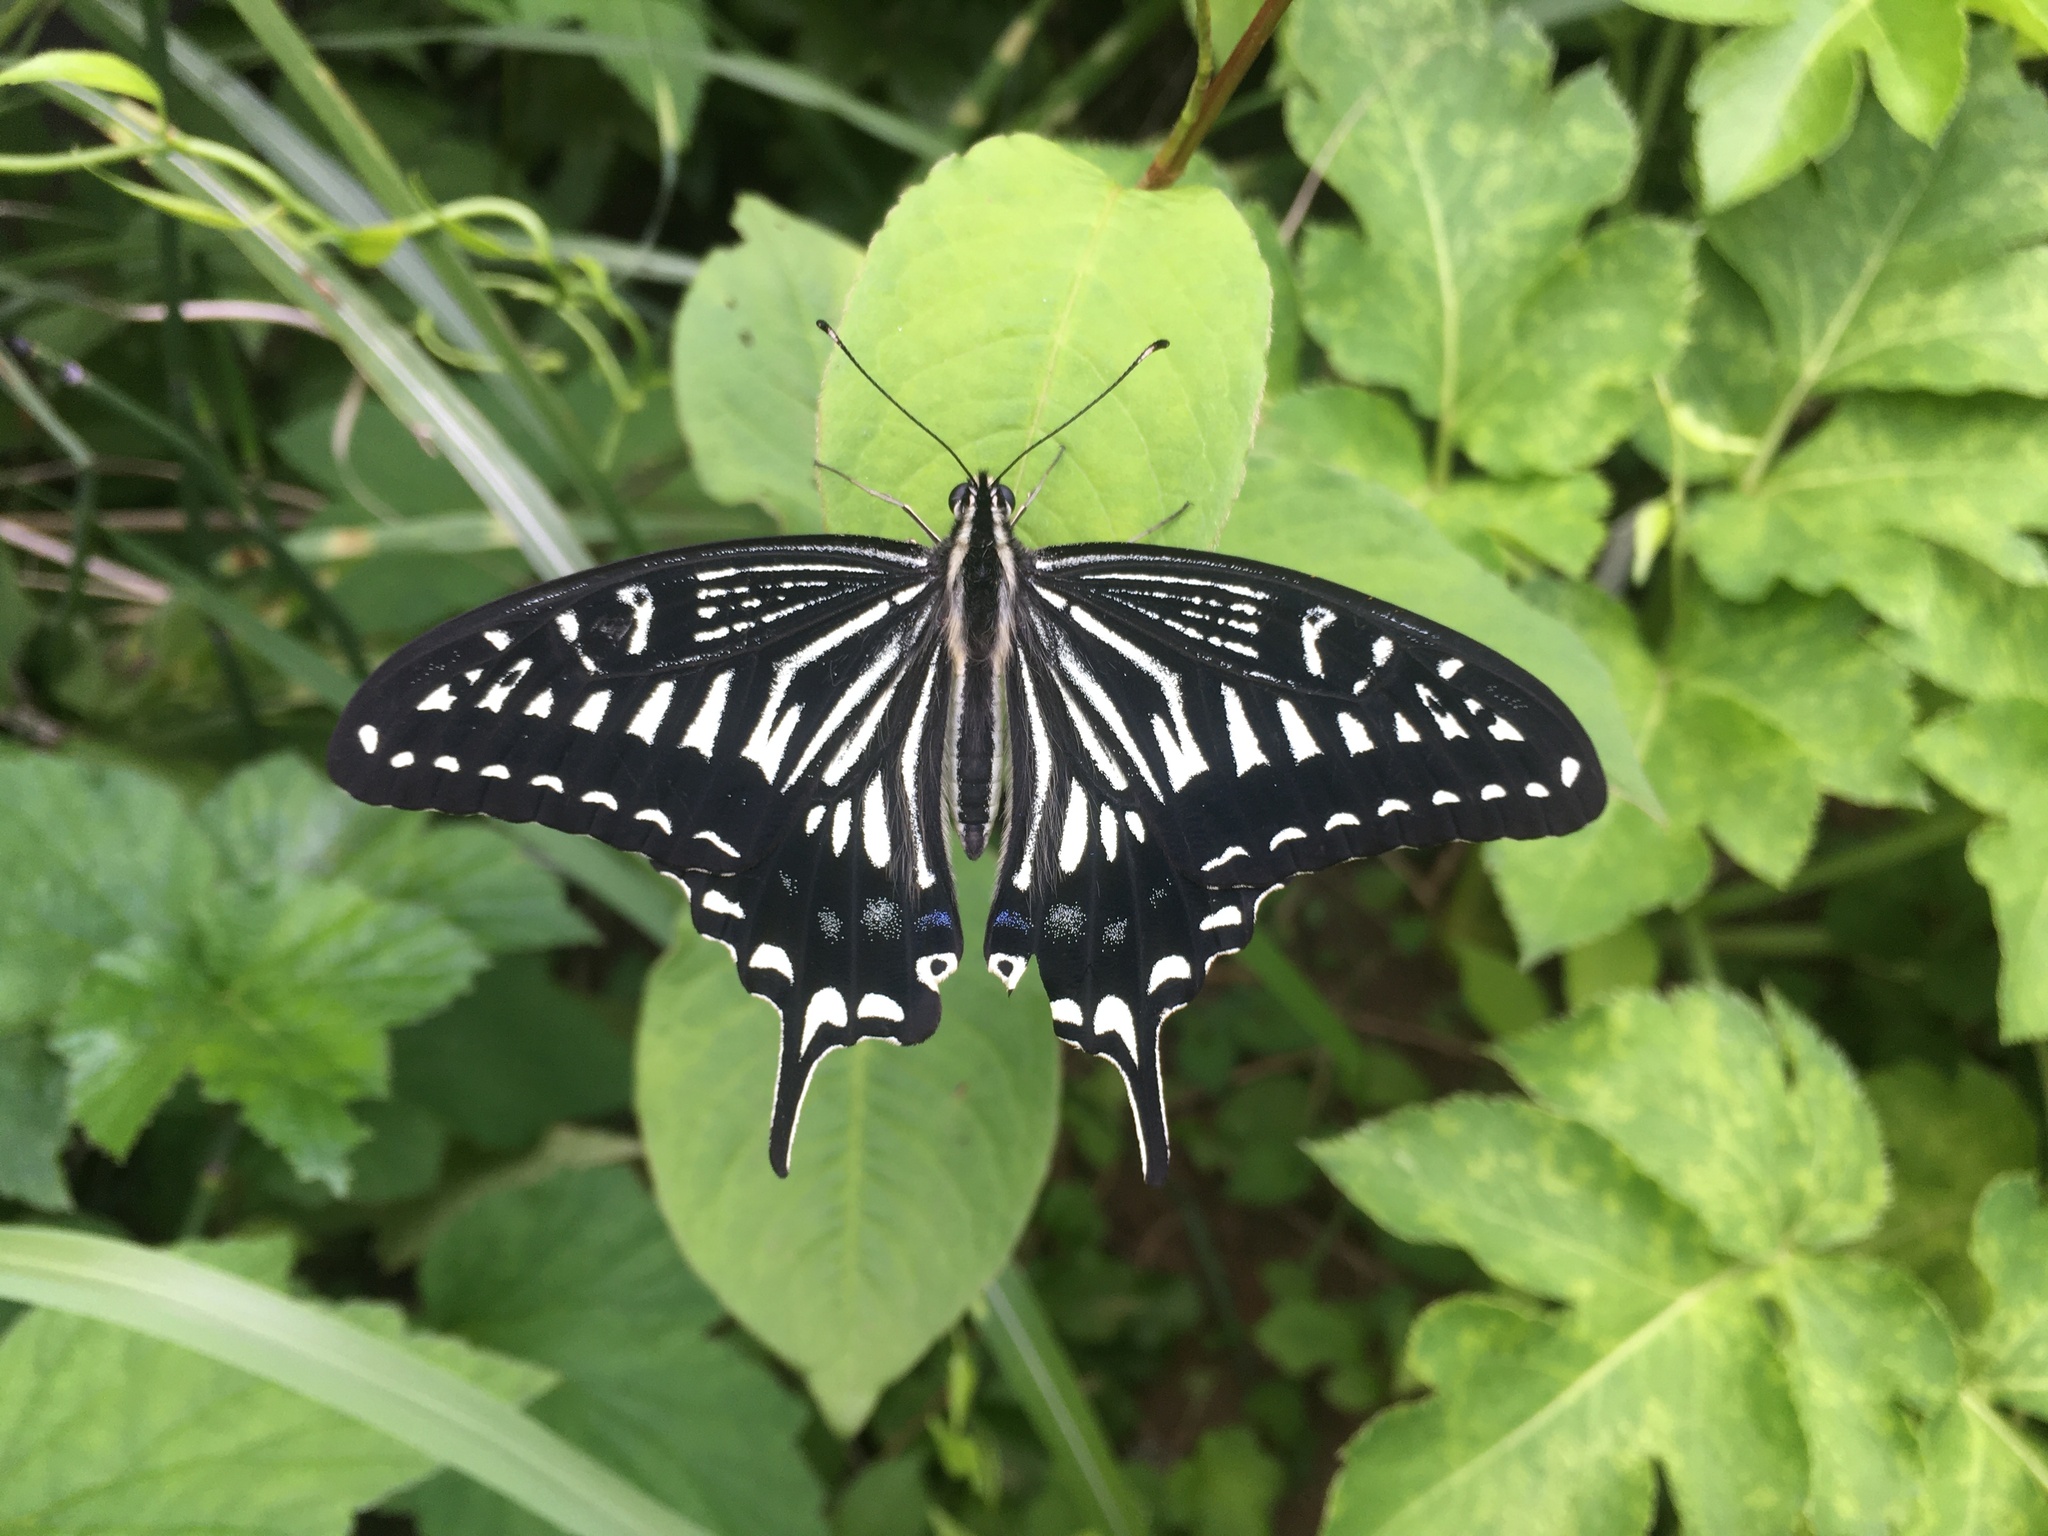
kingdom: Animalia
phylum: Arthropoda
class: Insecta
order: Lepidoptera
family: Papilionidae
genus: Papilio
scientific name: Papilio xuthus
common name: Asian swallowtail
